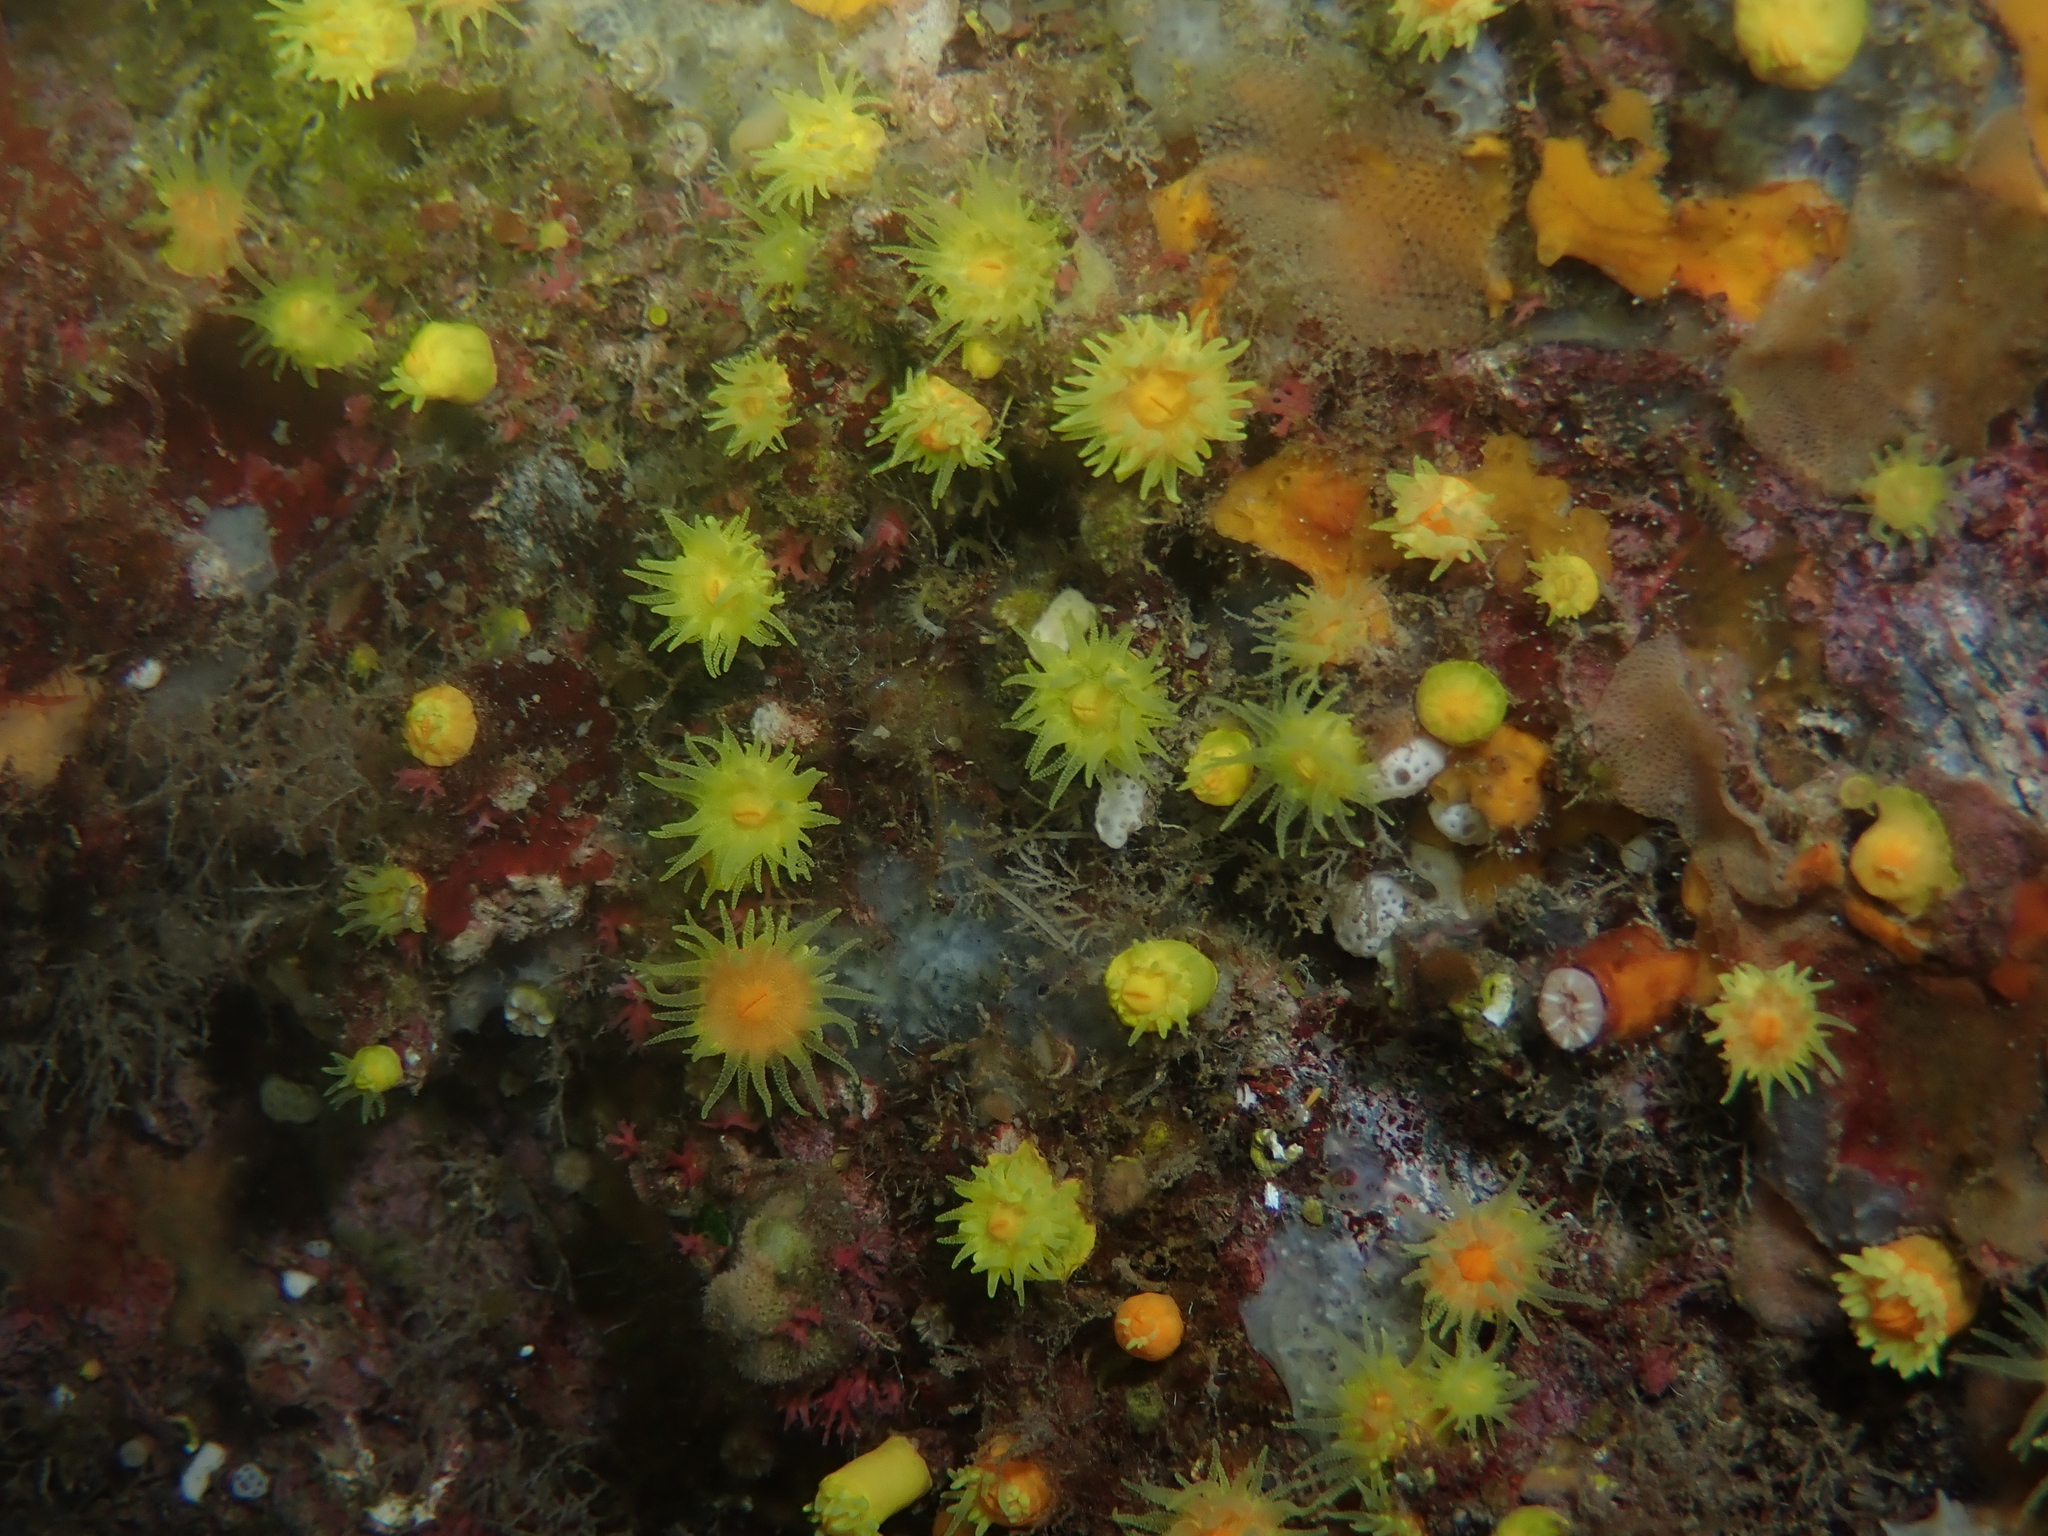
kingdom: Animalia
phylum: Cnidaria
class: Anthozoa
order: Scleractinia
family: Dendrophylliidae
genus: Leptopsammia
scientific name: Leptopsammia pruvoti
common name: Sunset cup coral
